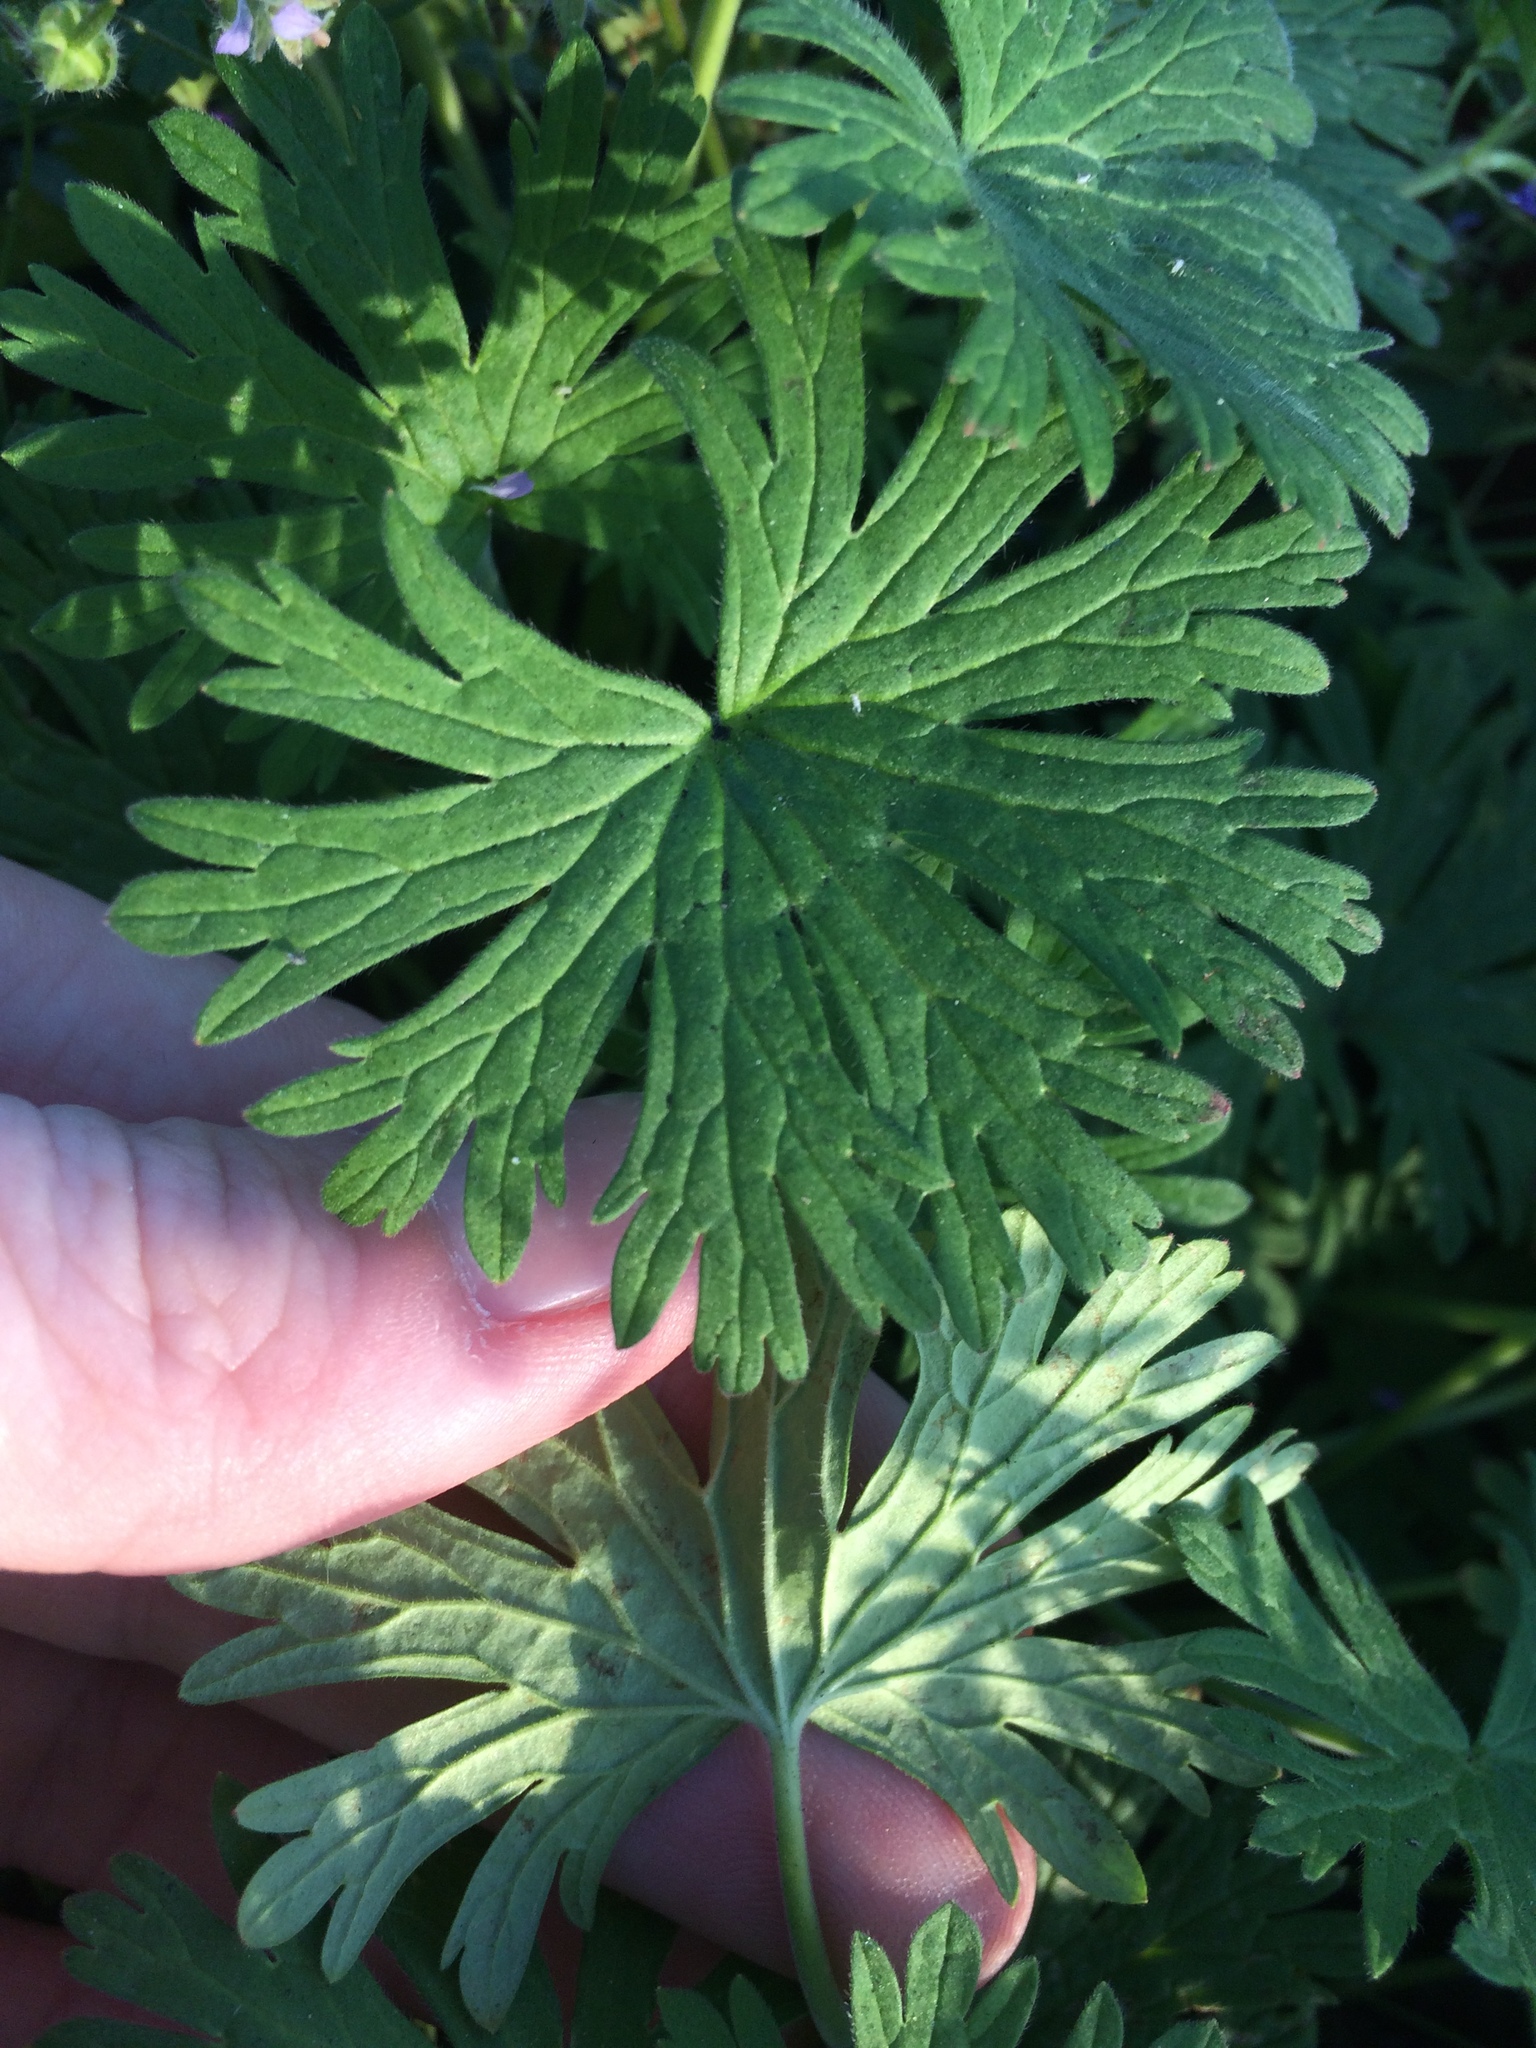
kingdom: Plantae
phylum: Tracheophyta
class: Magnoliopsida
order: Geraniales
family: Geraniaceae
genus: Geranium
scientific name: Geranium pusillum
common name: Small geranium
